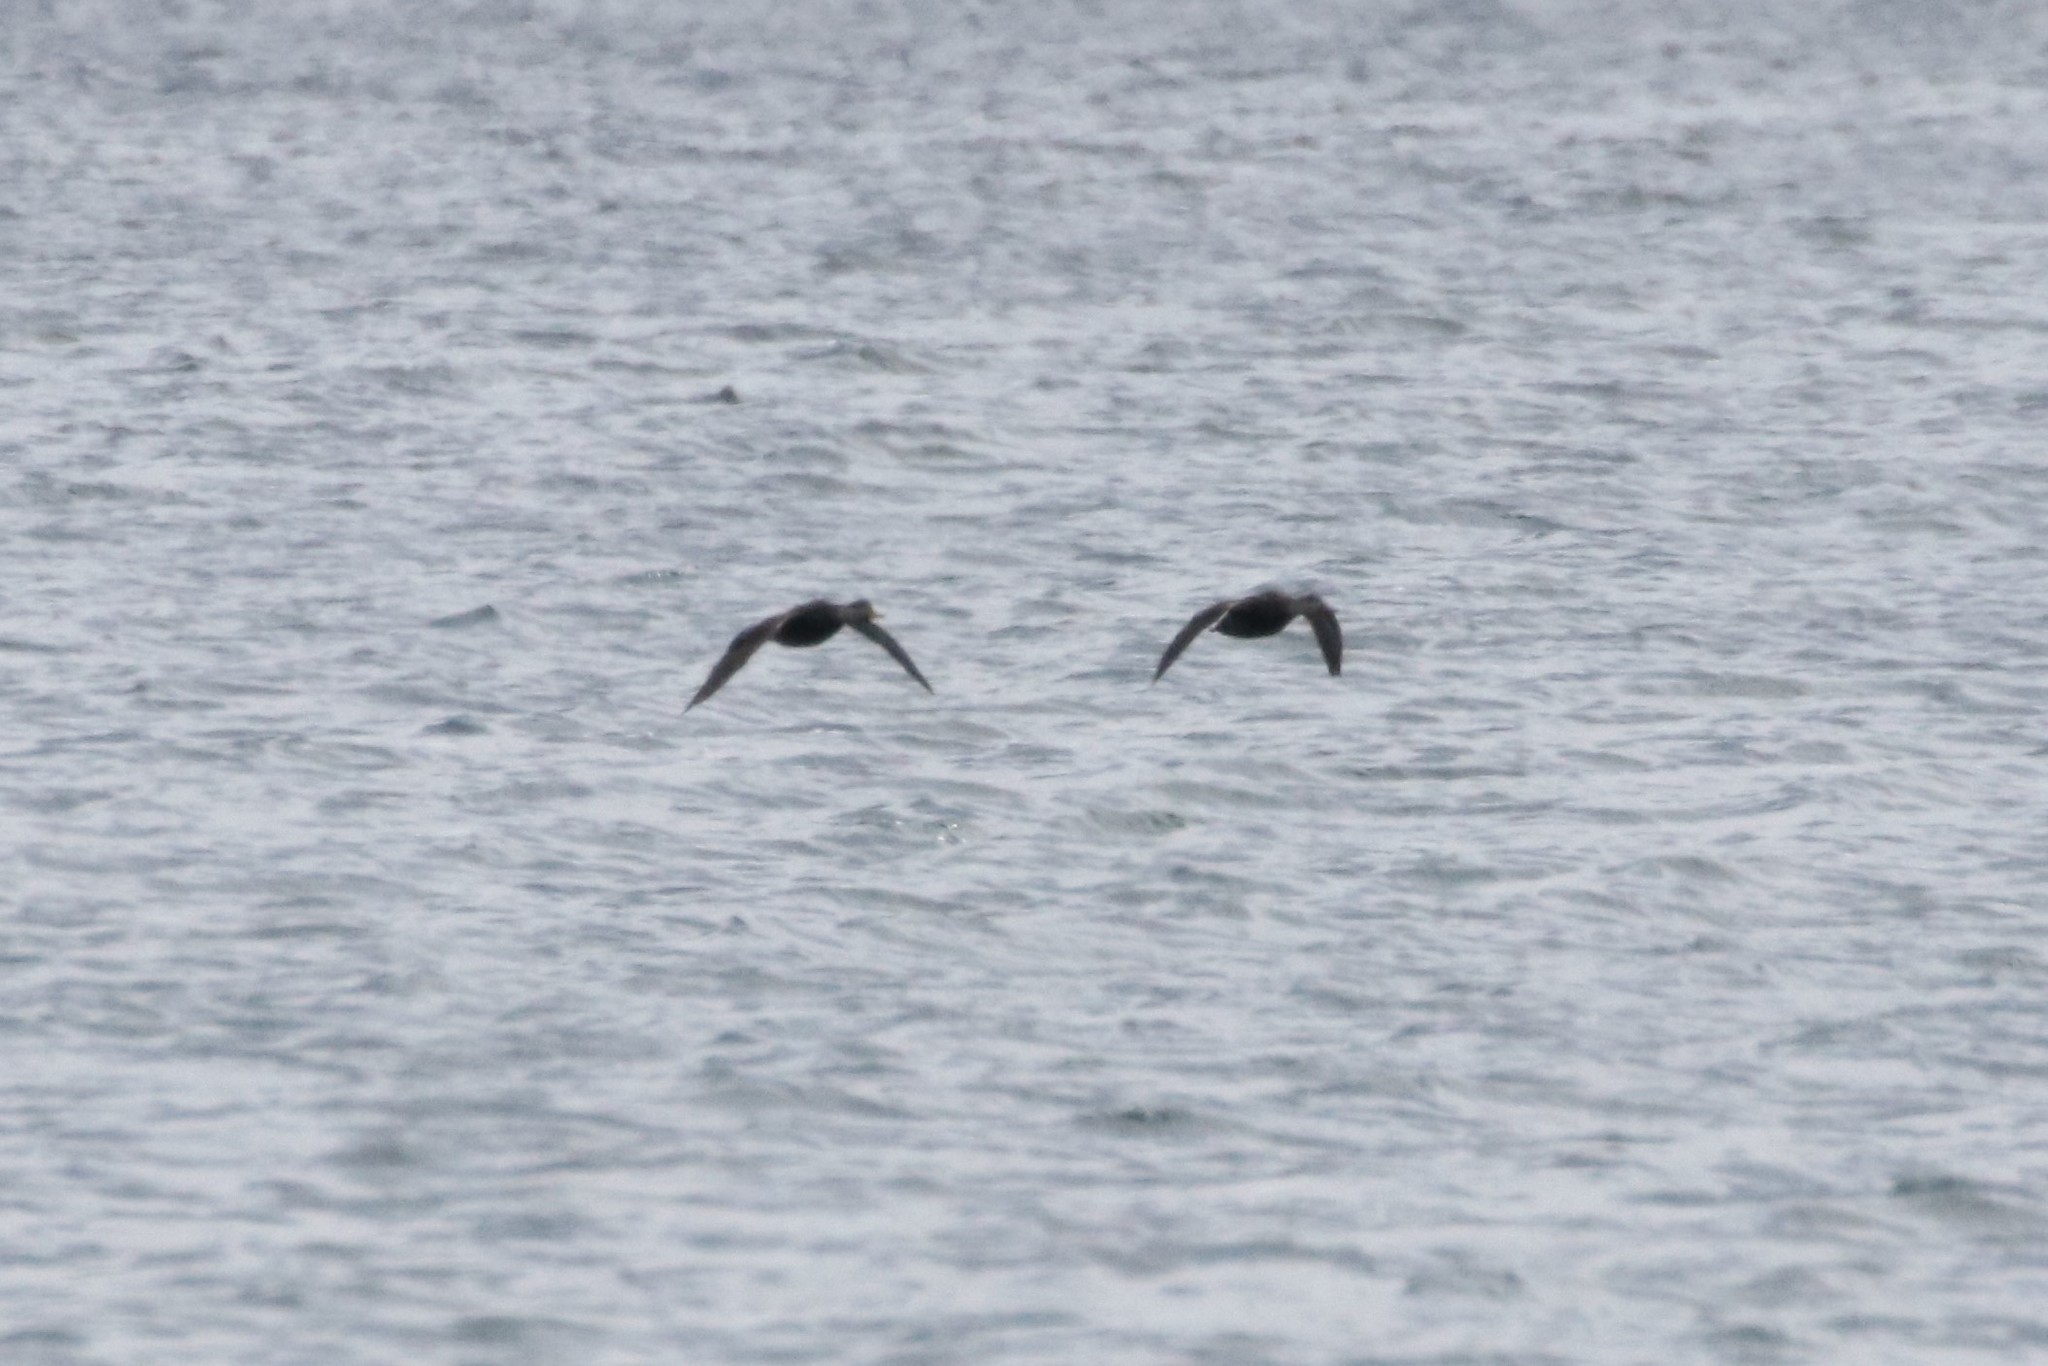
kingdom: Animalia
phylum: Chordata
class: Aves
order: Anseriformes
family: Anatidae
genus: Anas
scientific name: Anas rubripes
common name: American black duck
